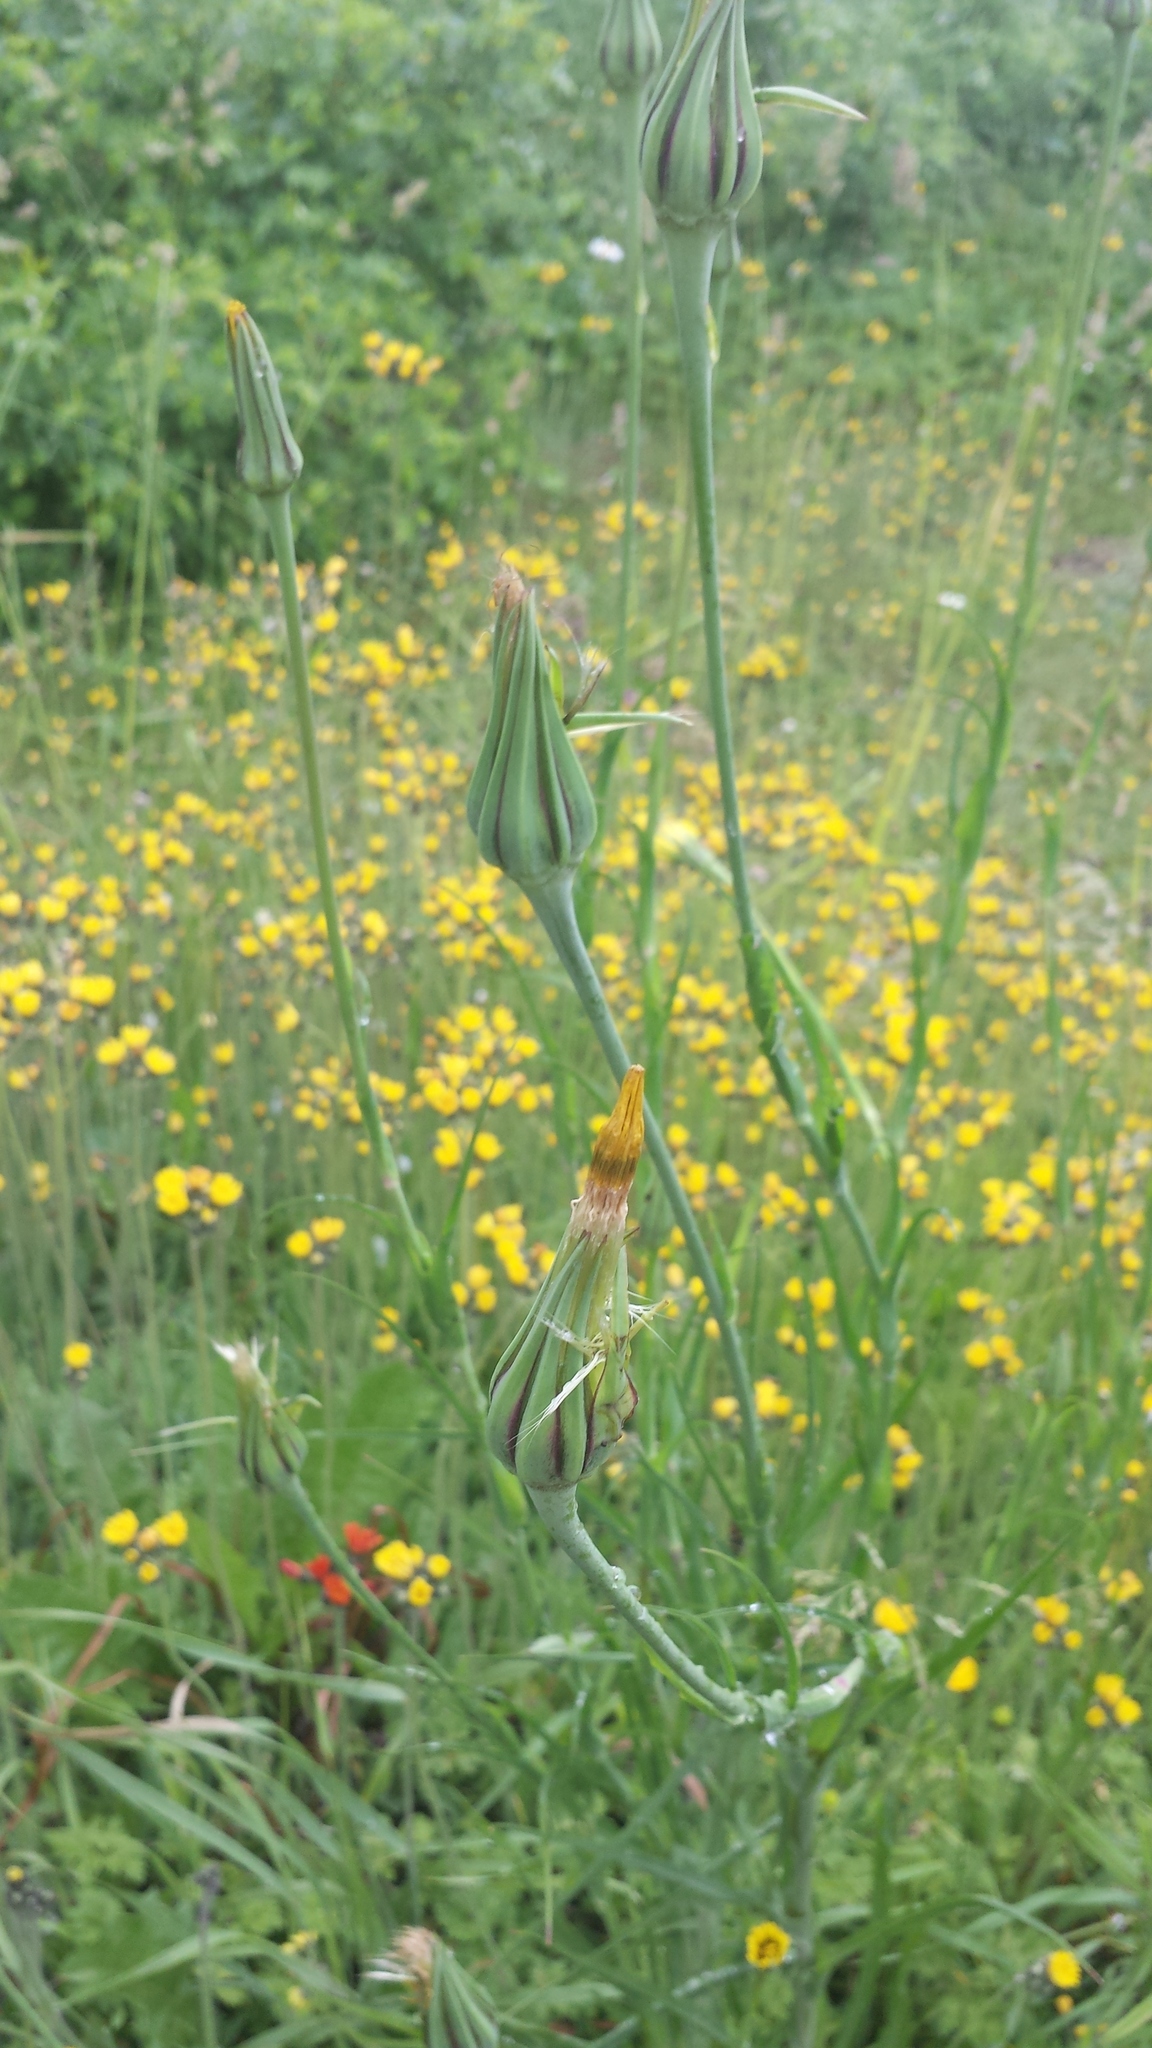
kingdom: Plantae
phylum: Tracheophyta
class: Magnoliopsida
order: Asterales
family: Asteraceae
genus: Tragopogon
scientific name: Tragopogon pratensis
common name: Goat's-beard
